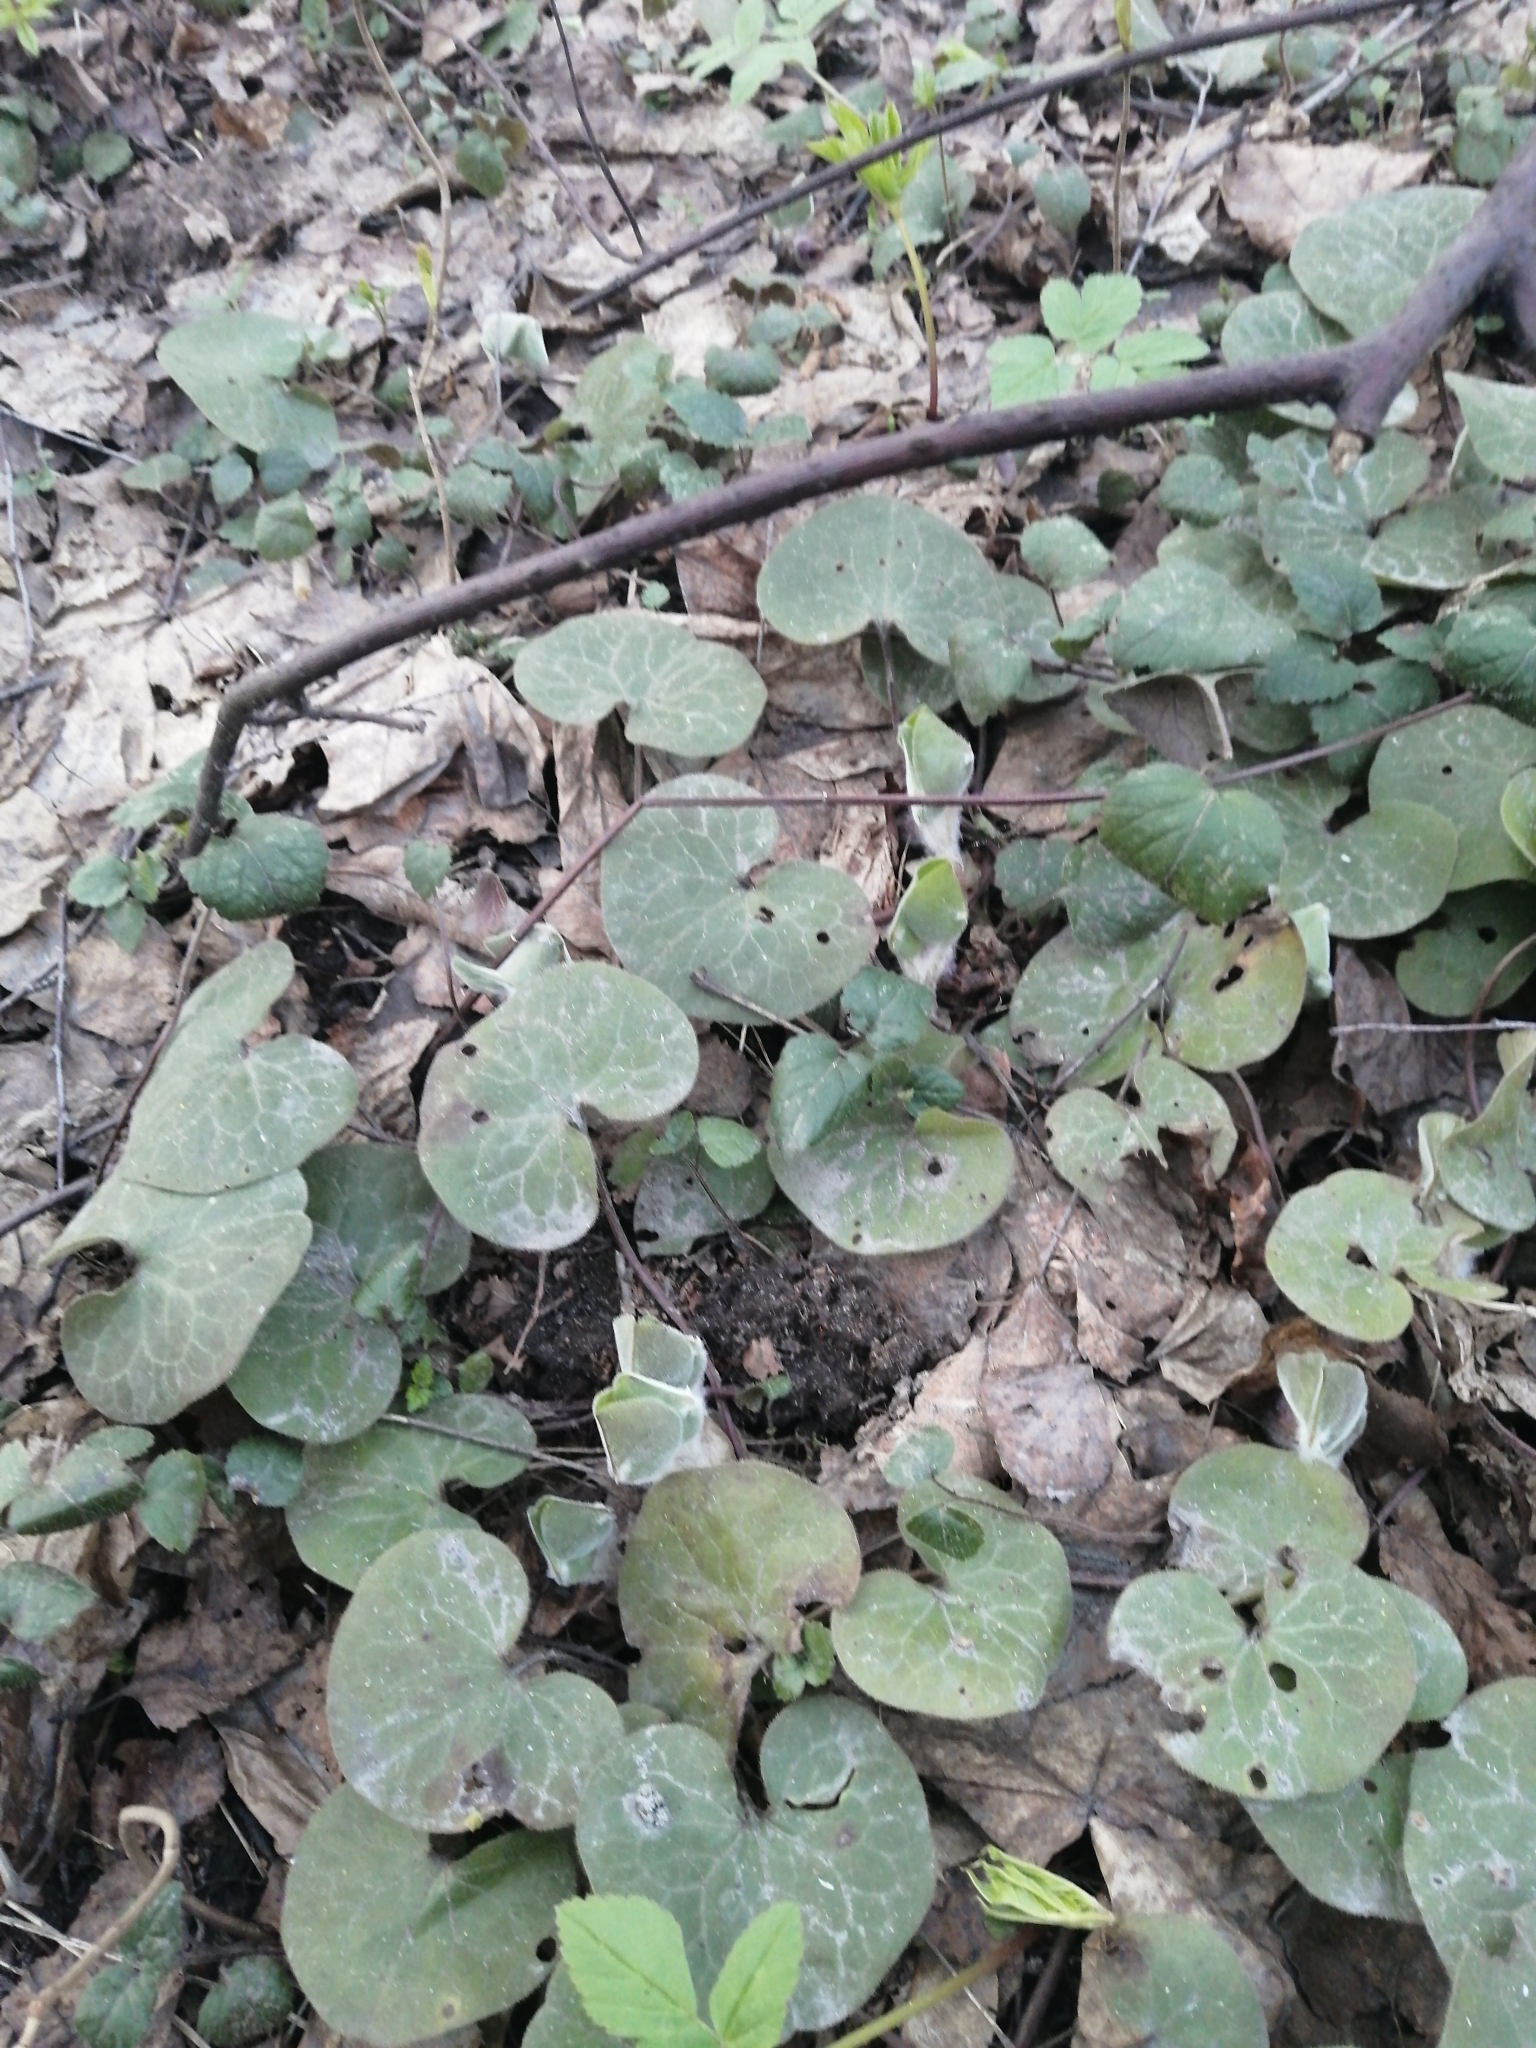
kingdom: Plantae
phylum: Tracheophyta
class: Magnoliopsida
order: Piperales
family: Aristolochiaceae
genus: Asarum
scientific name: Asarum europaeum
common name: Asarabacca
